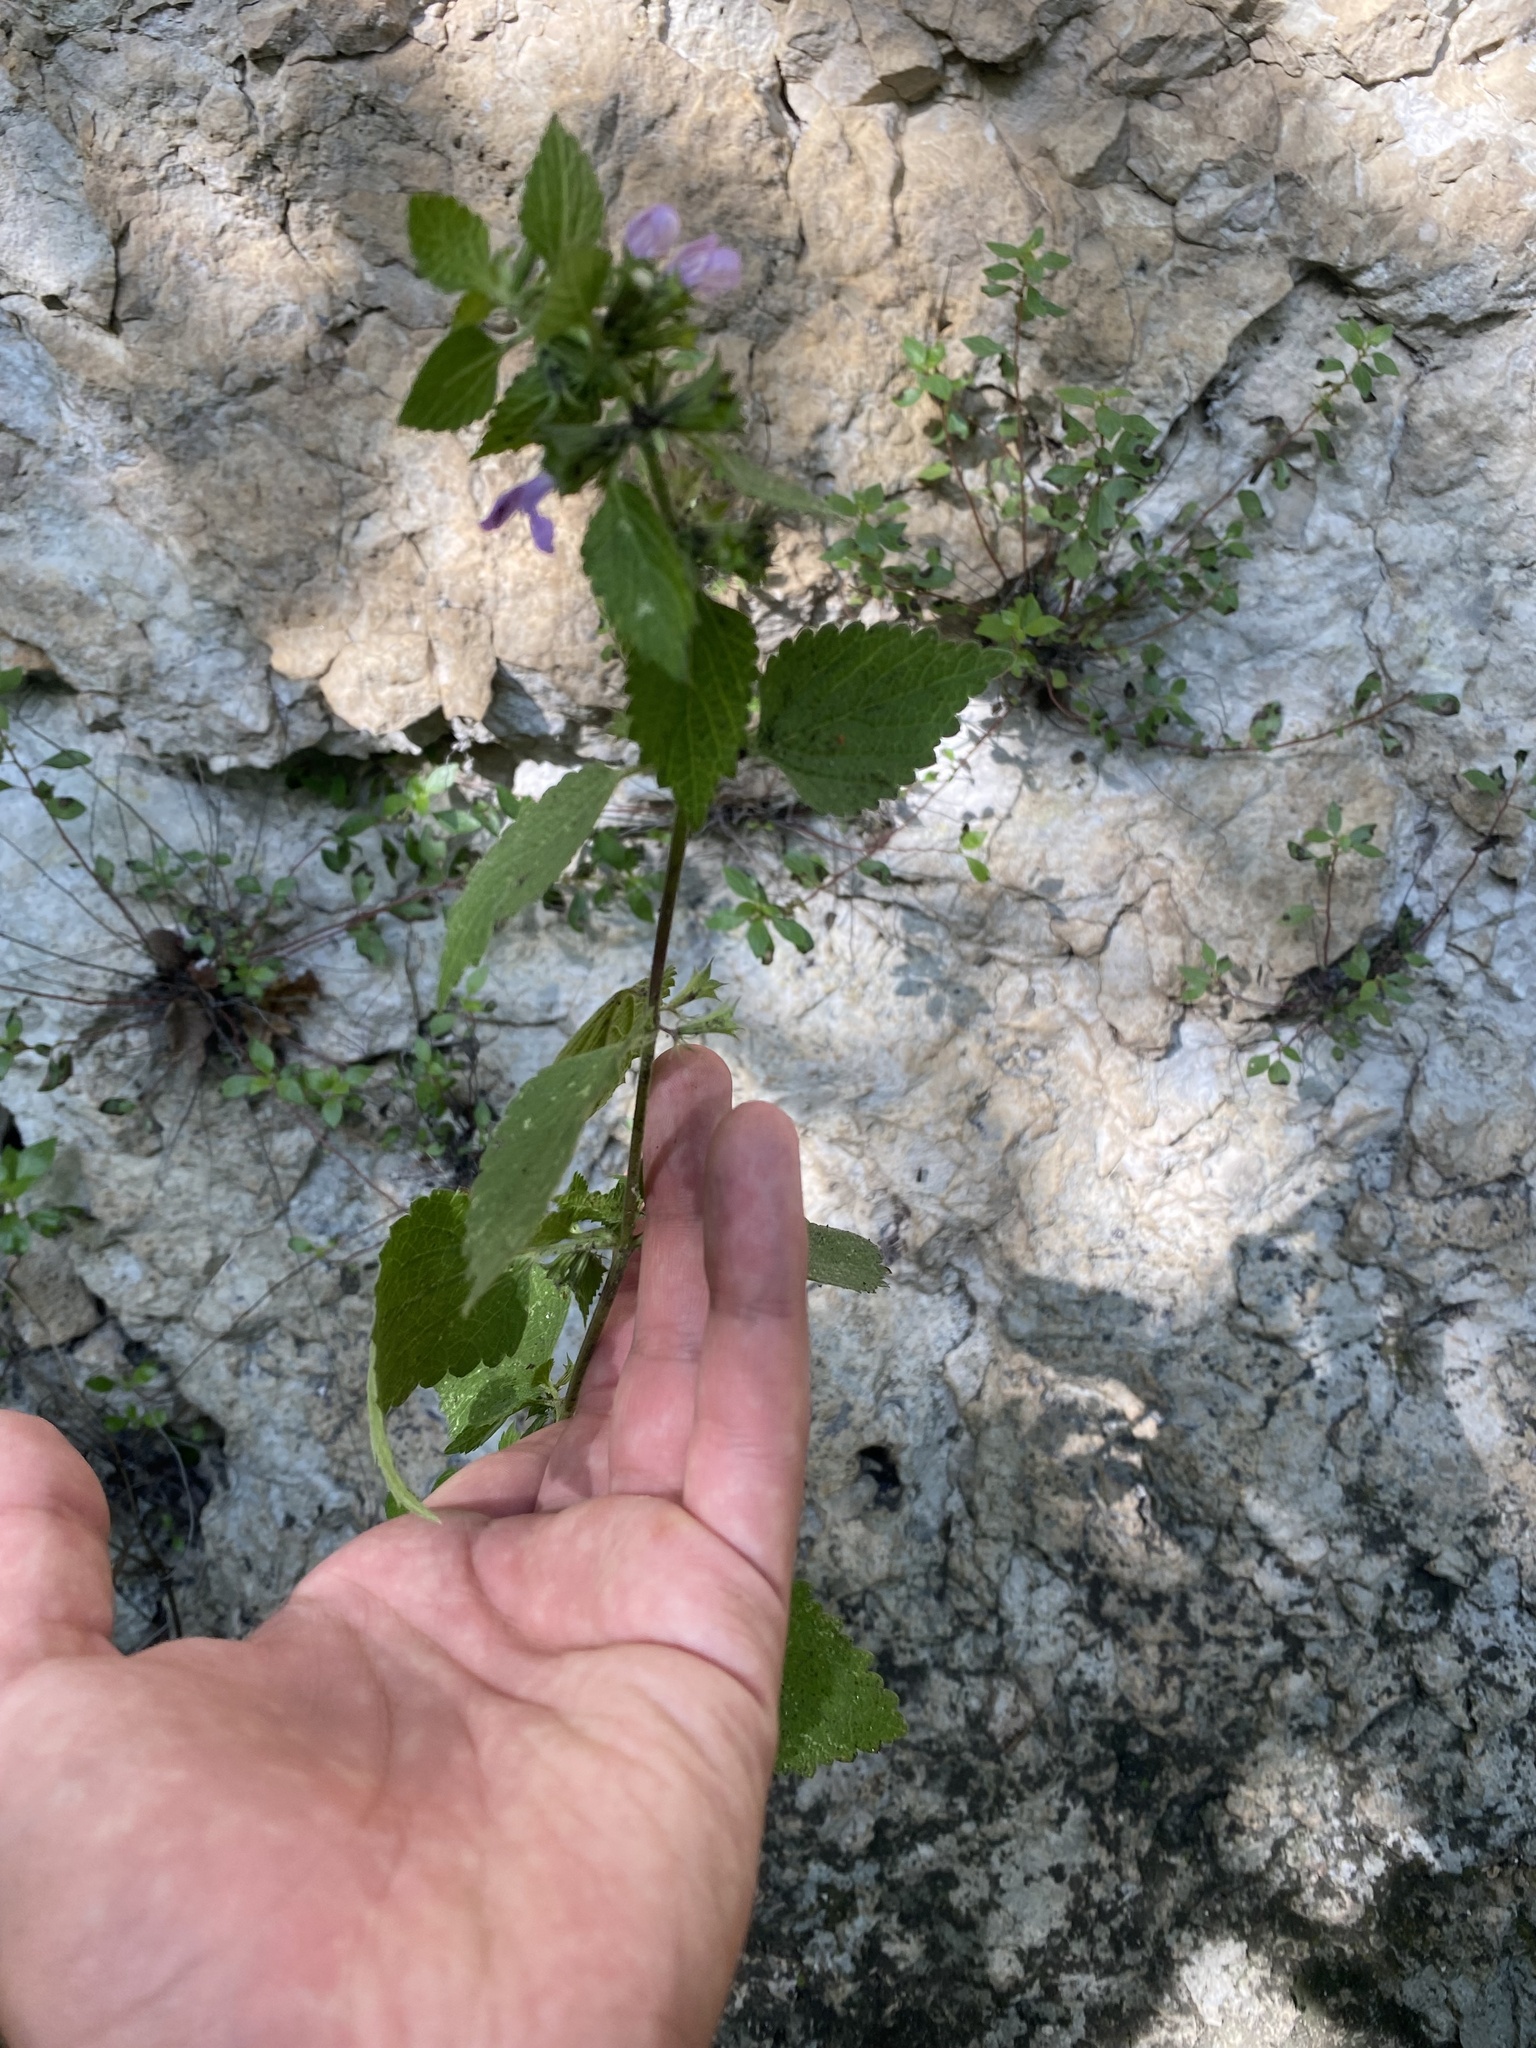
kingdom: Plantae
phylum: Tracheophyta
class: Magnoliopsida
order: Lamiales
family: Lamiaceae
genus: Ballota
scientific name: Ballota nigra
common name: Black horehound
